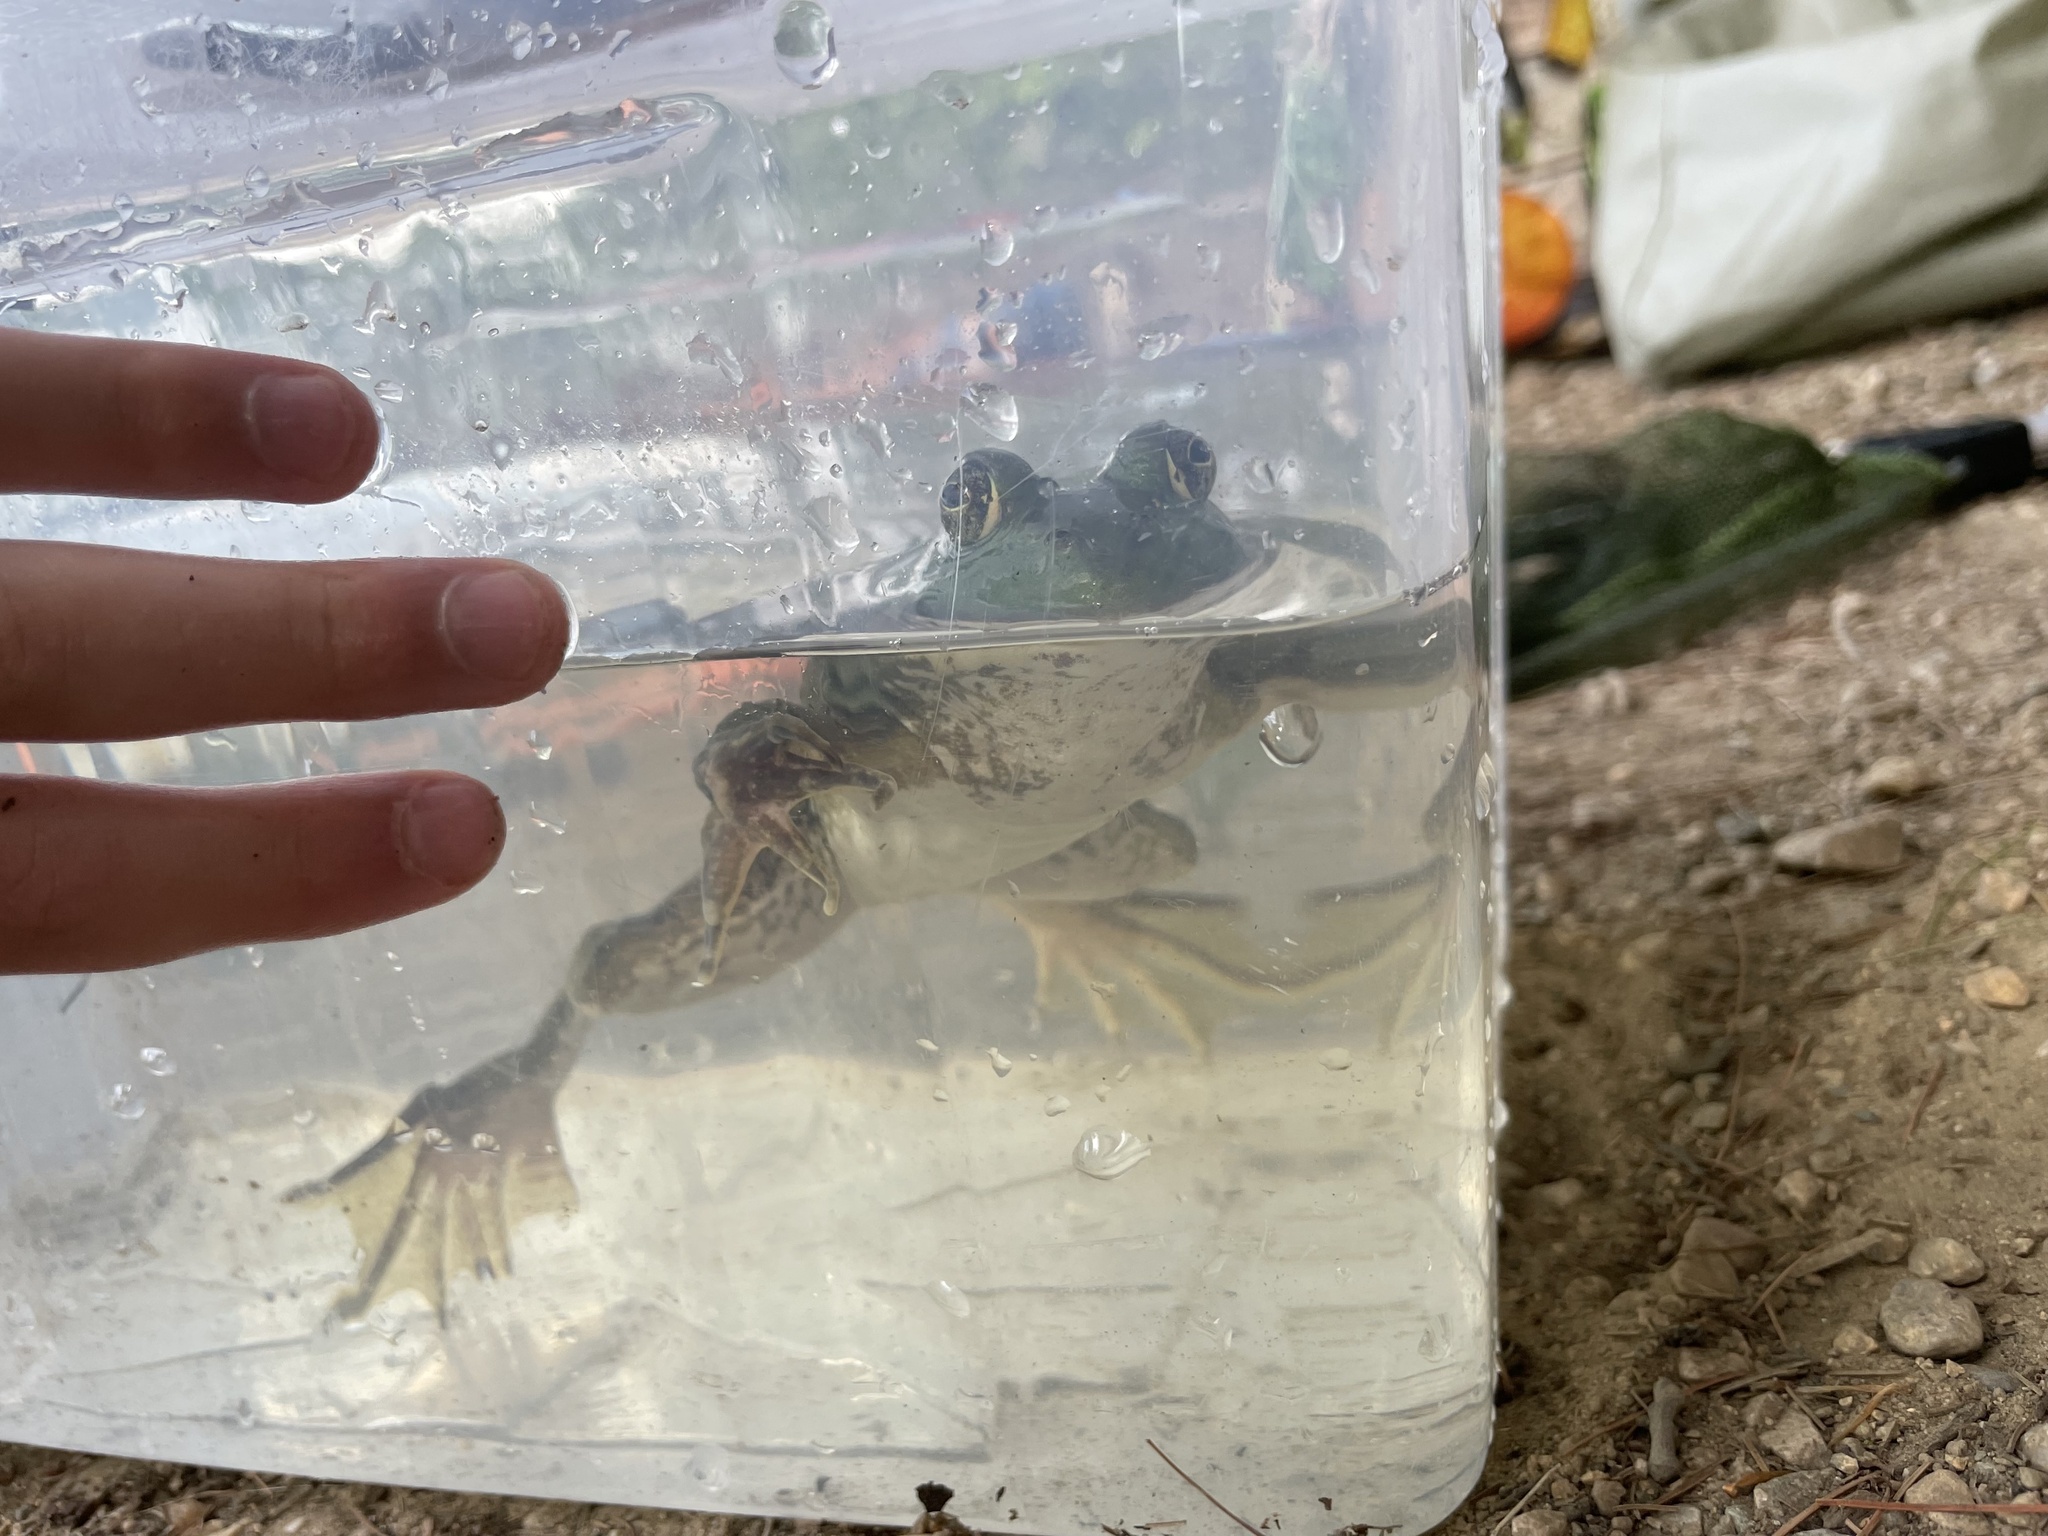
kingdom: Animalia
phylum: Chordata
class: Amphibia
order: Anura
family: Ranidae
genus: Lithobates
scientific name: Lithobates catesbeianus
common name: American bullfrog
